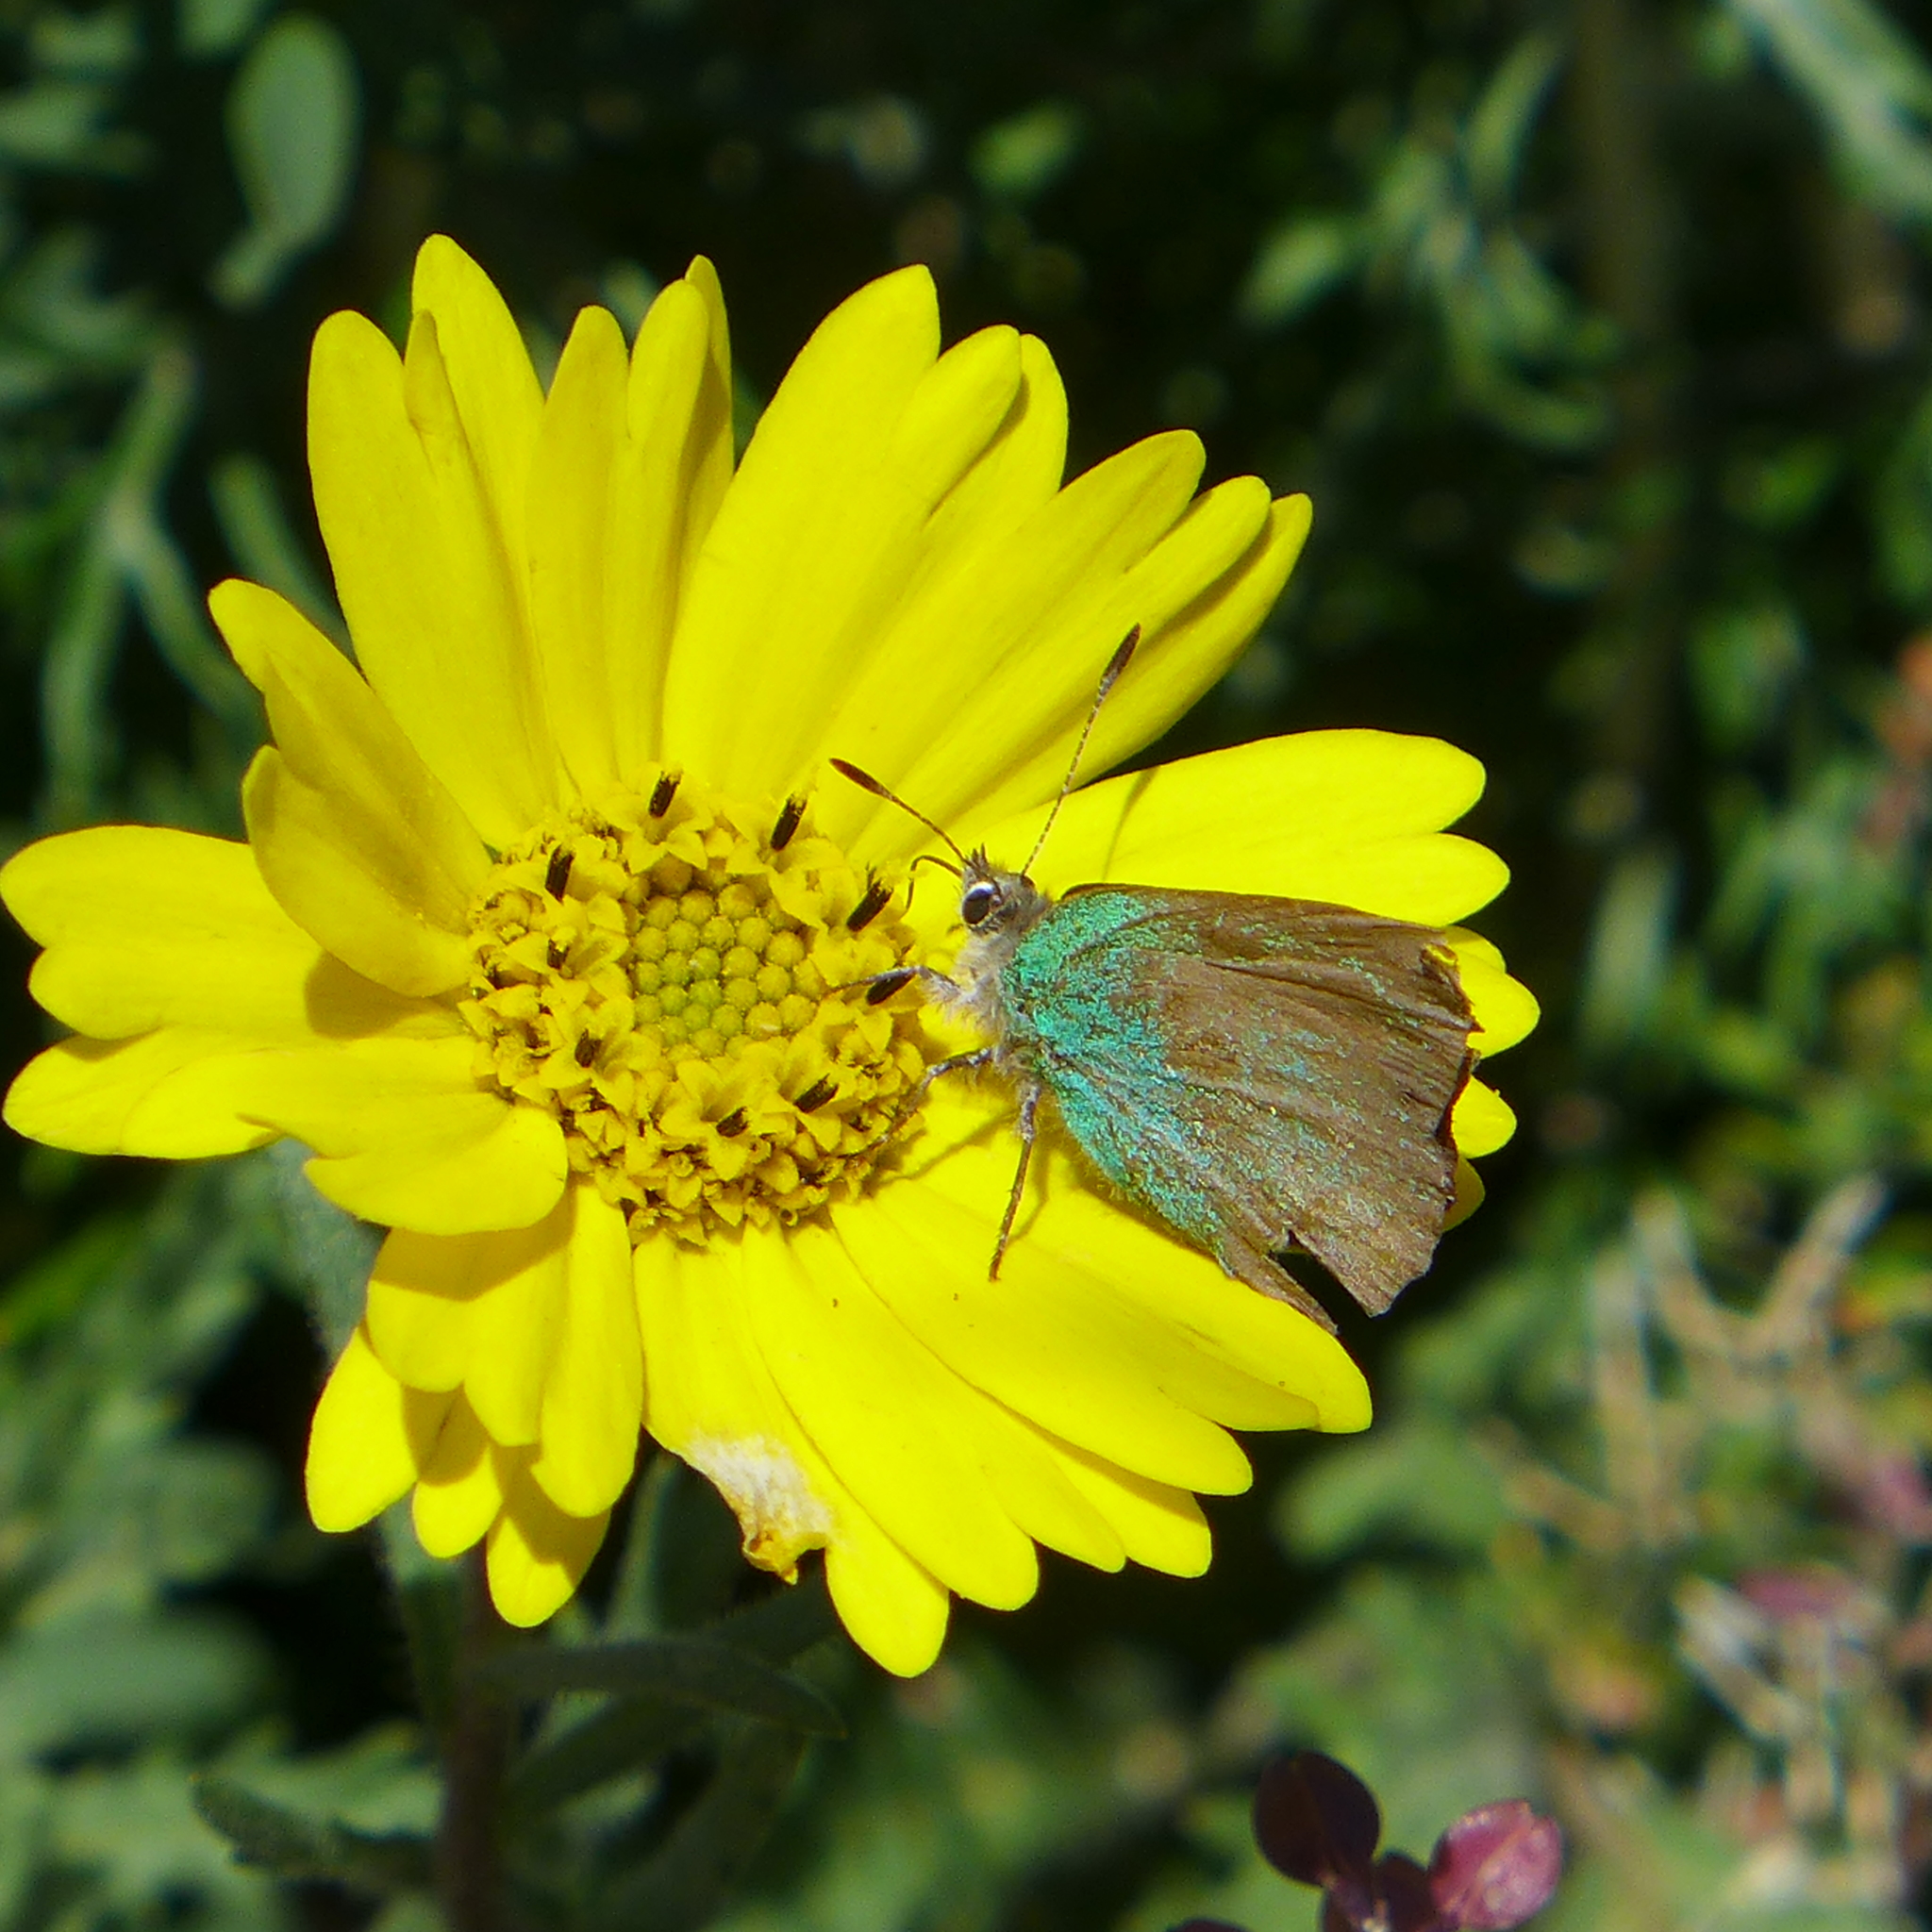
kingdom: Animalia
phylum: Arthropoda
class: Insecta
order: Lepidoptera
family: Lycaenidae
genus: Callophrys
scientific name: Callophrys dumetorum
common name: Bramble hairstreak
